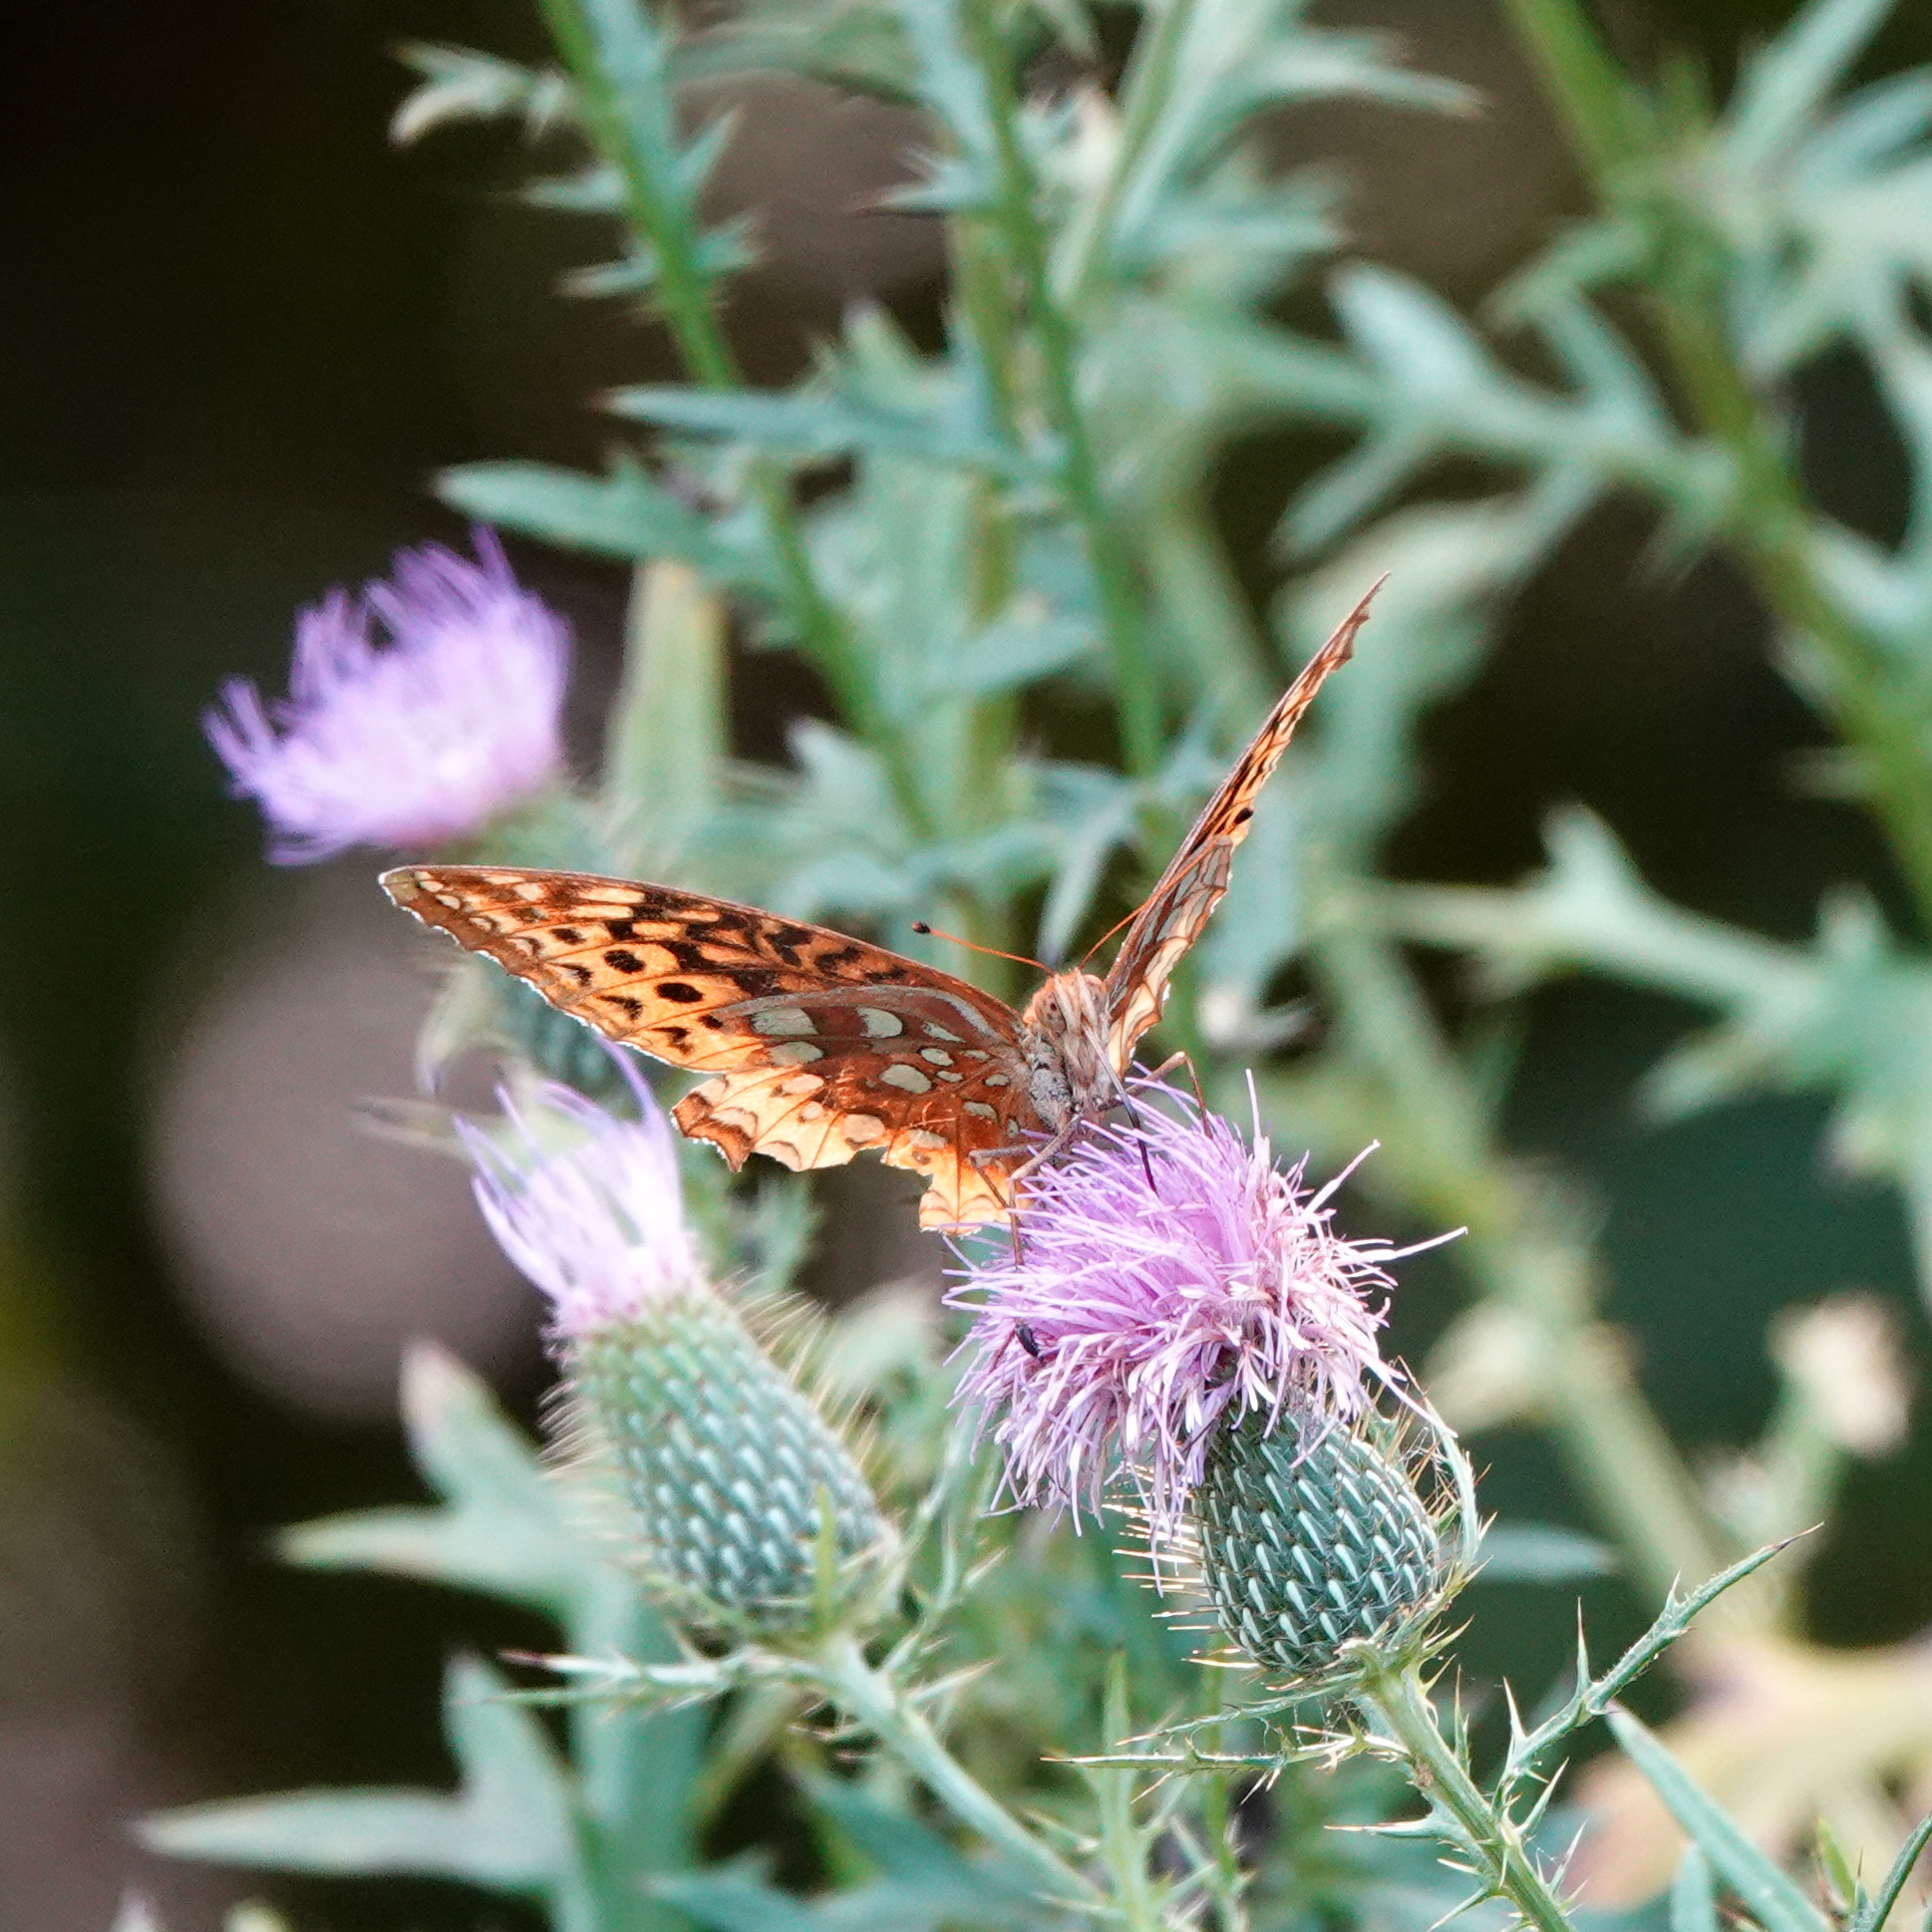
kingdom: Animalia
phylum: Arthropoda
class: Insecta
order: Lepidoptera
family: Nymphalidae
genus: Speyeria
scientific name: Speyeria cybele
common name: Great spangled fritillary
